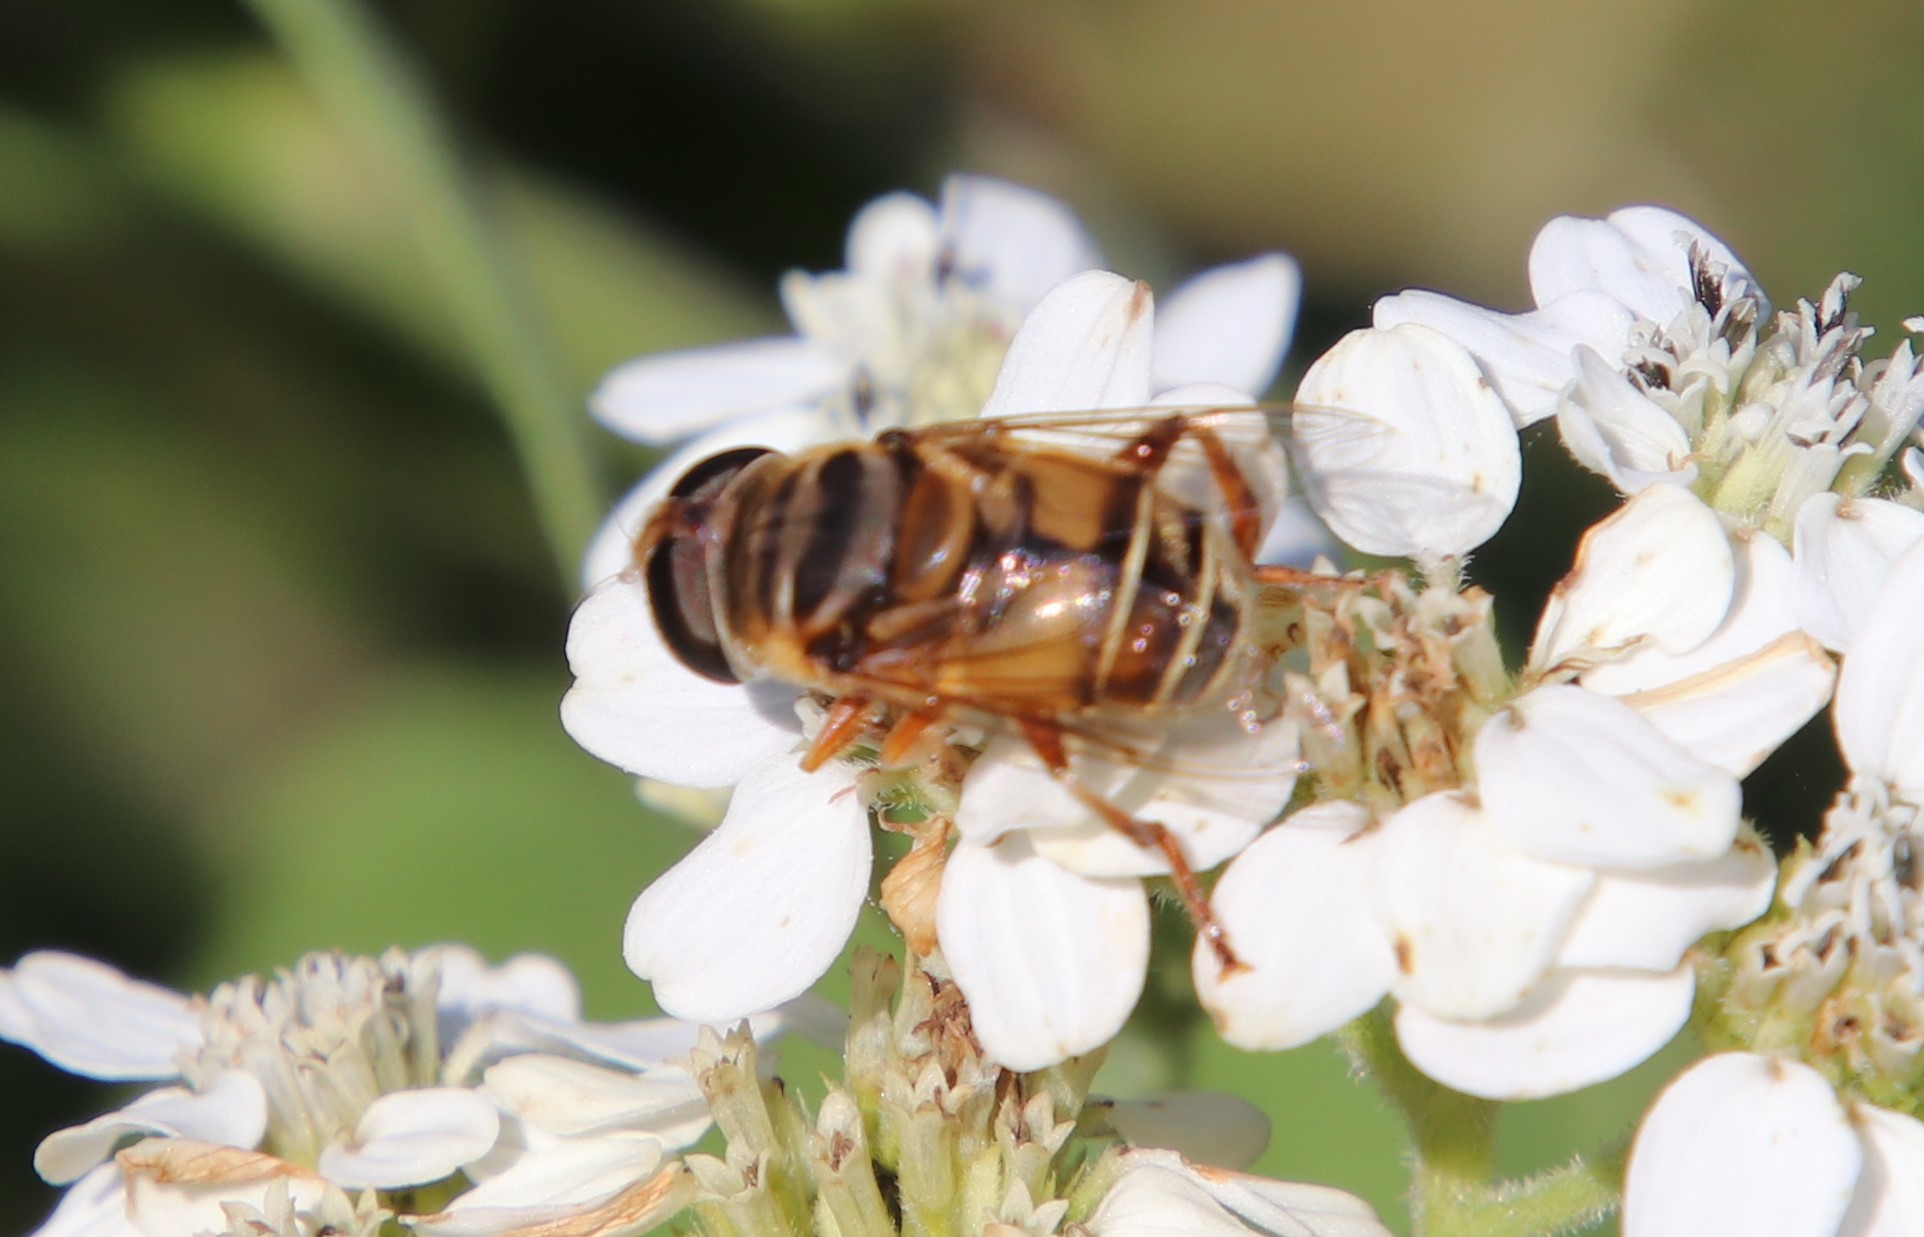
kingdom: Animalia
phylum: Arthropoda
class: Insecta
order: Diptera
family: Syrphidae
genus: Palpada
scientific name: Palpada vinetorum
